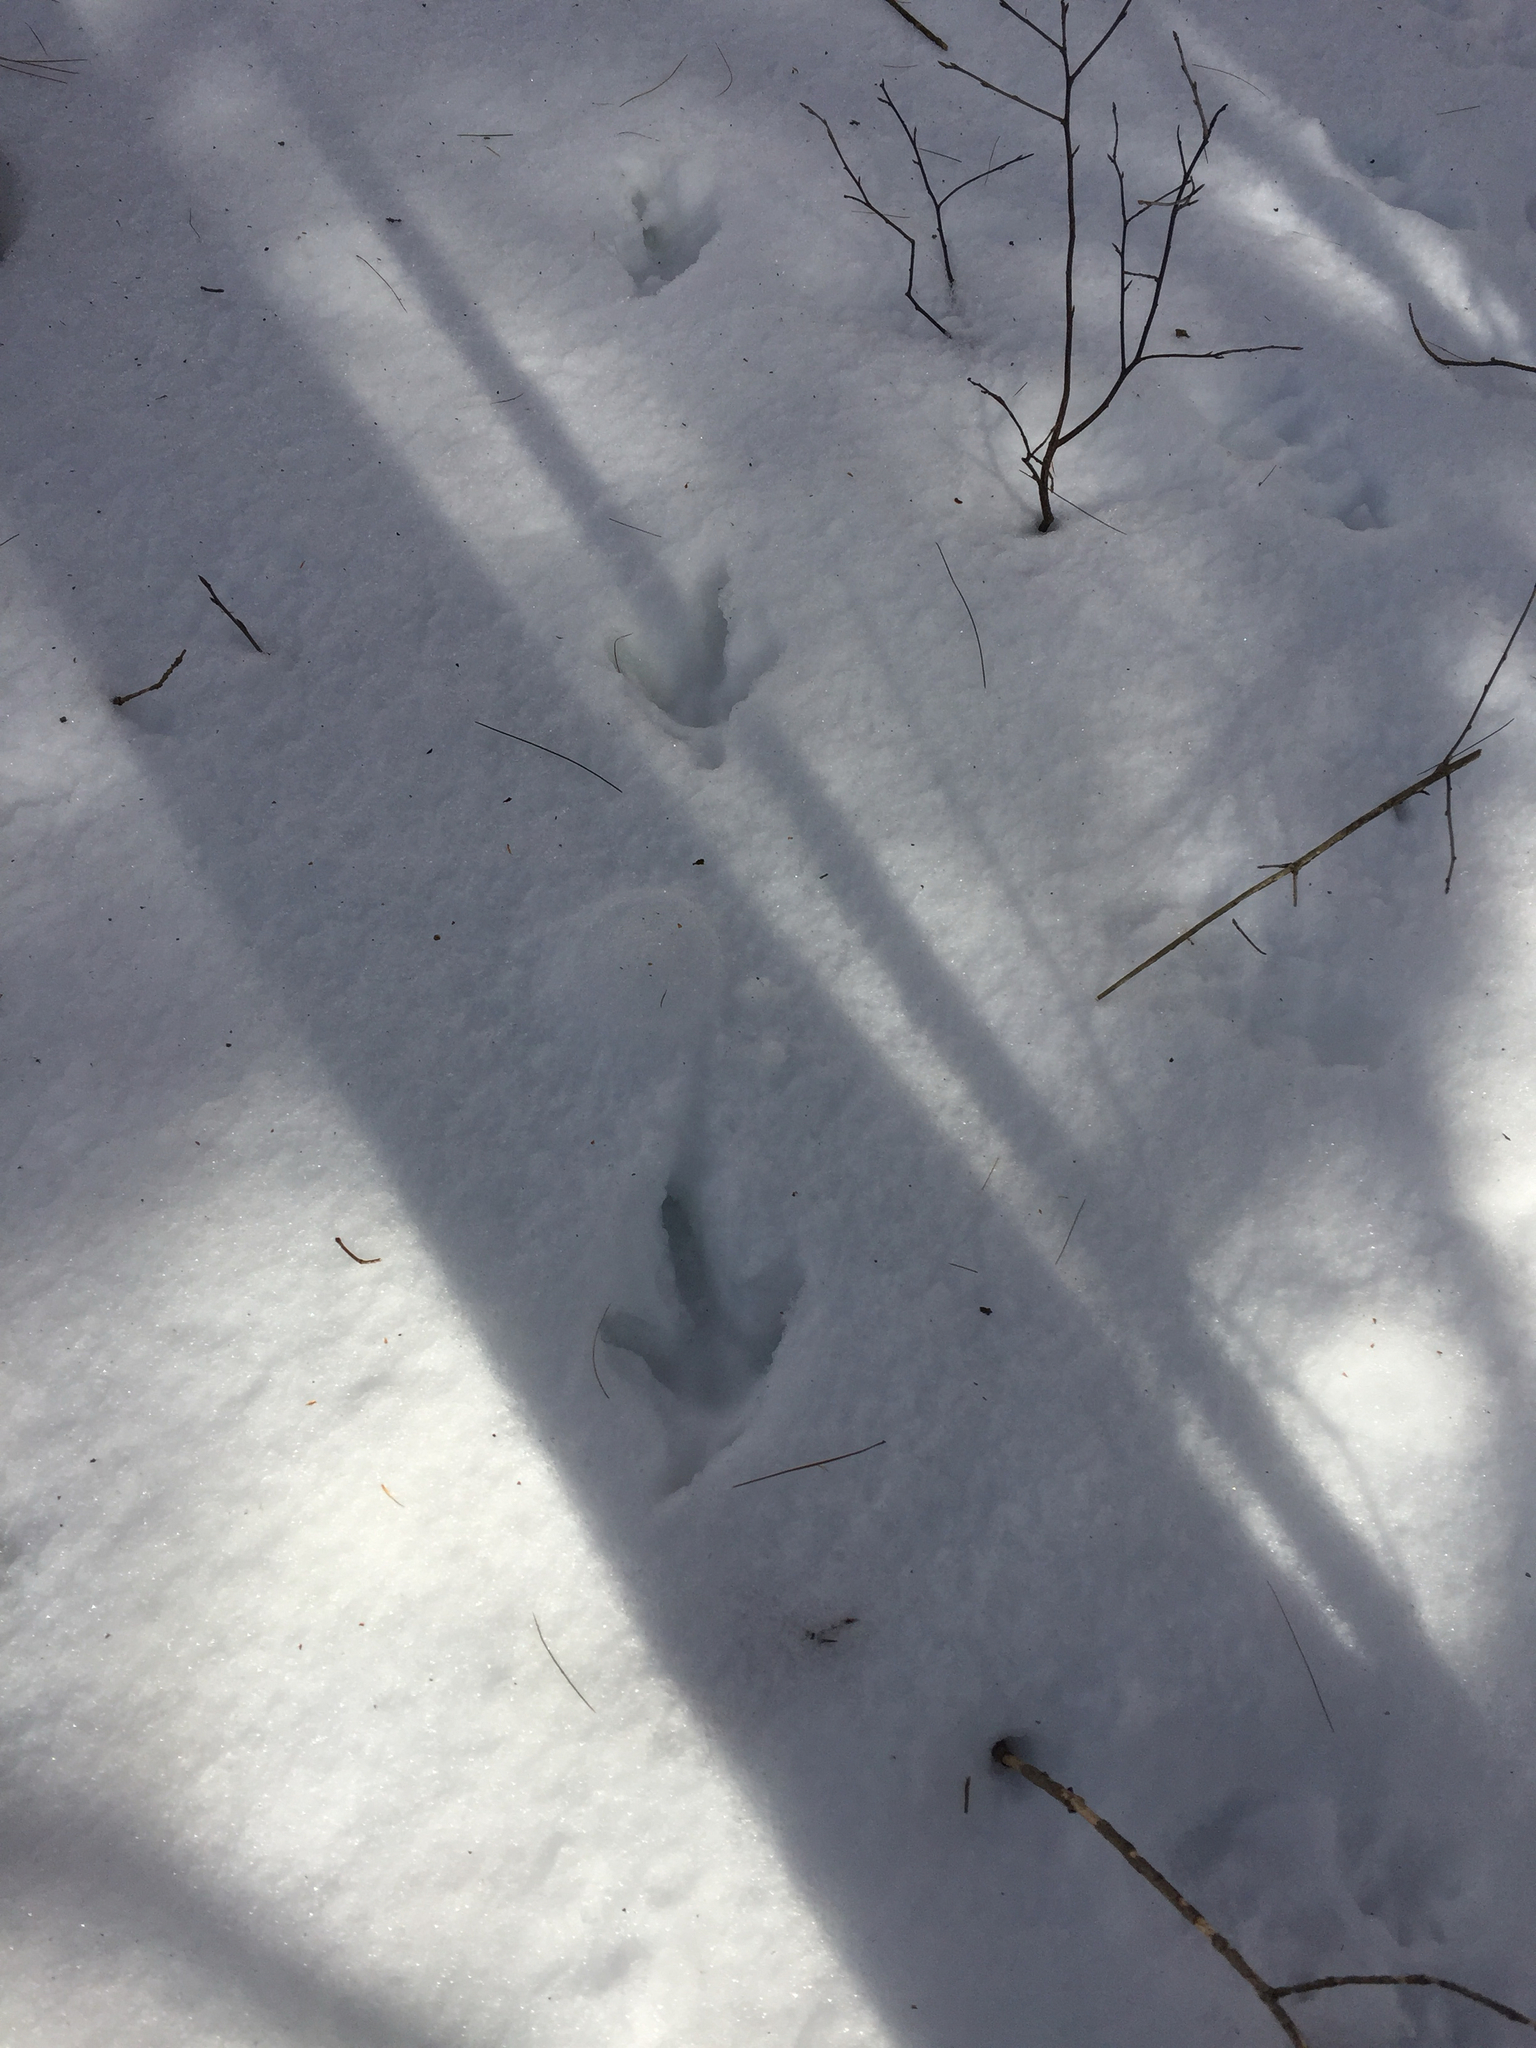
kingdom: Animalia
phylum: Chordata
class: Aves
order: Galliformes
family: Phasianidae
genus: Meleagris
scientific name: Meleagris gallopavo
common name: Wild turkey
